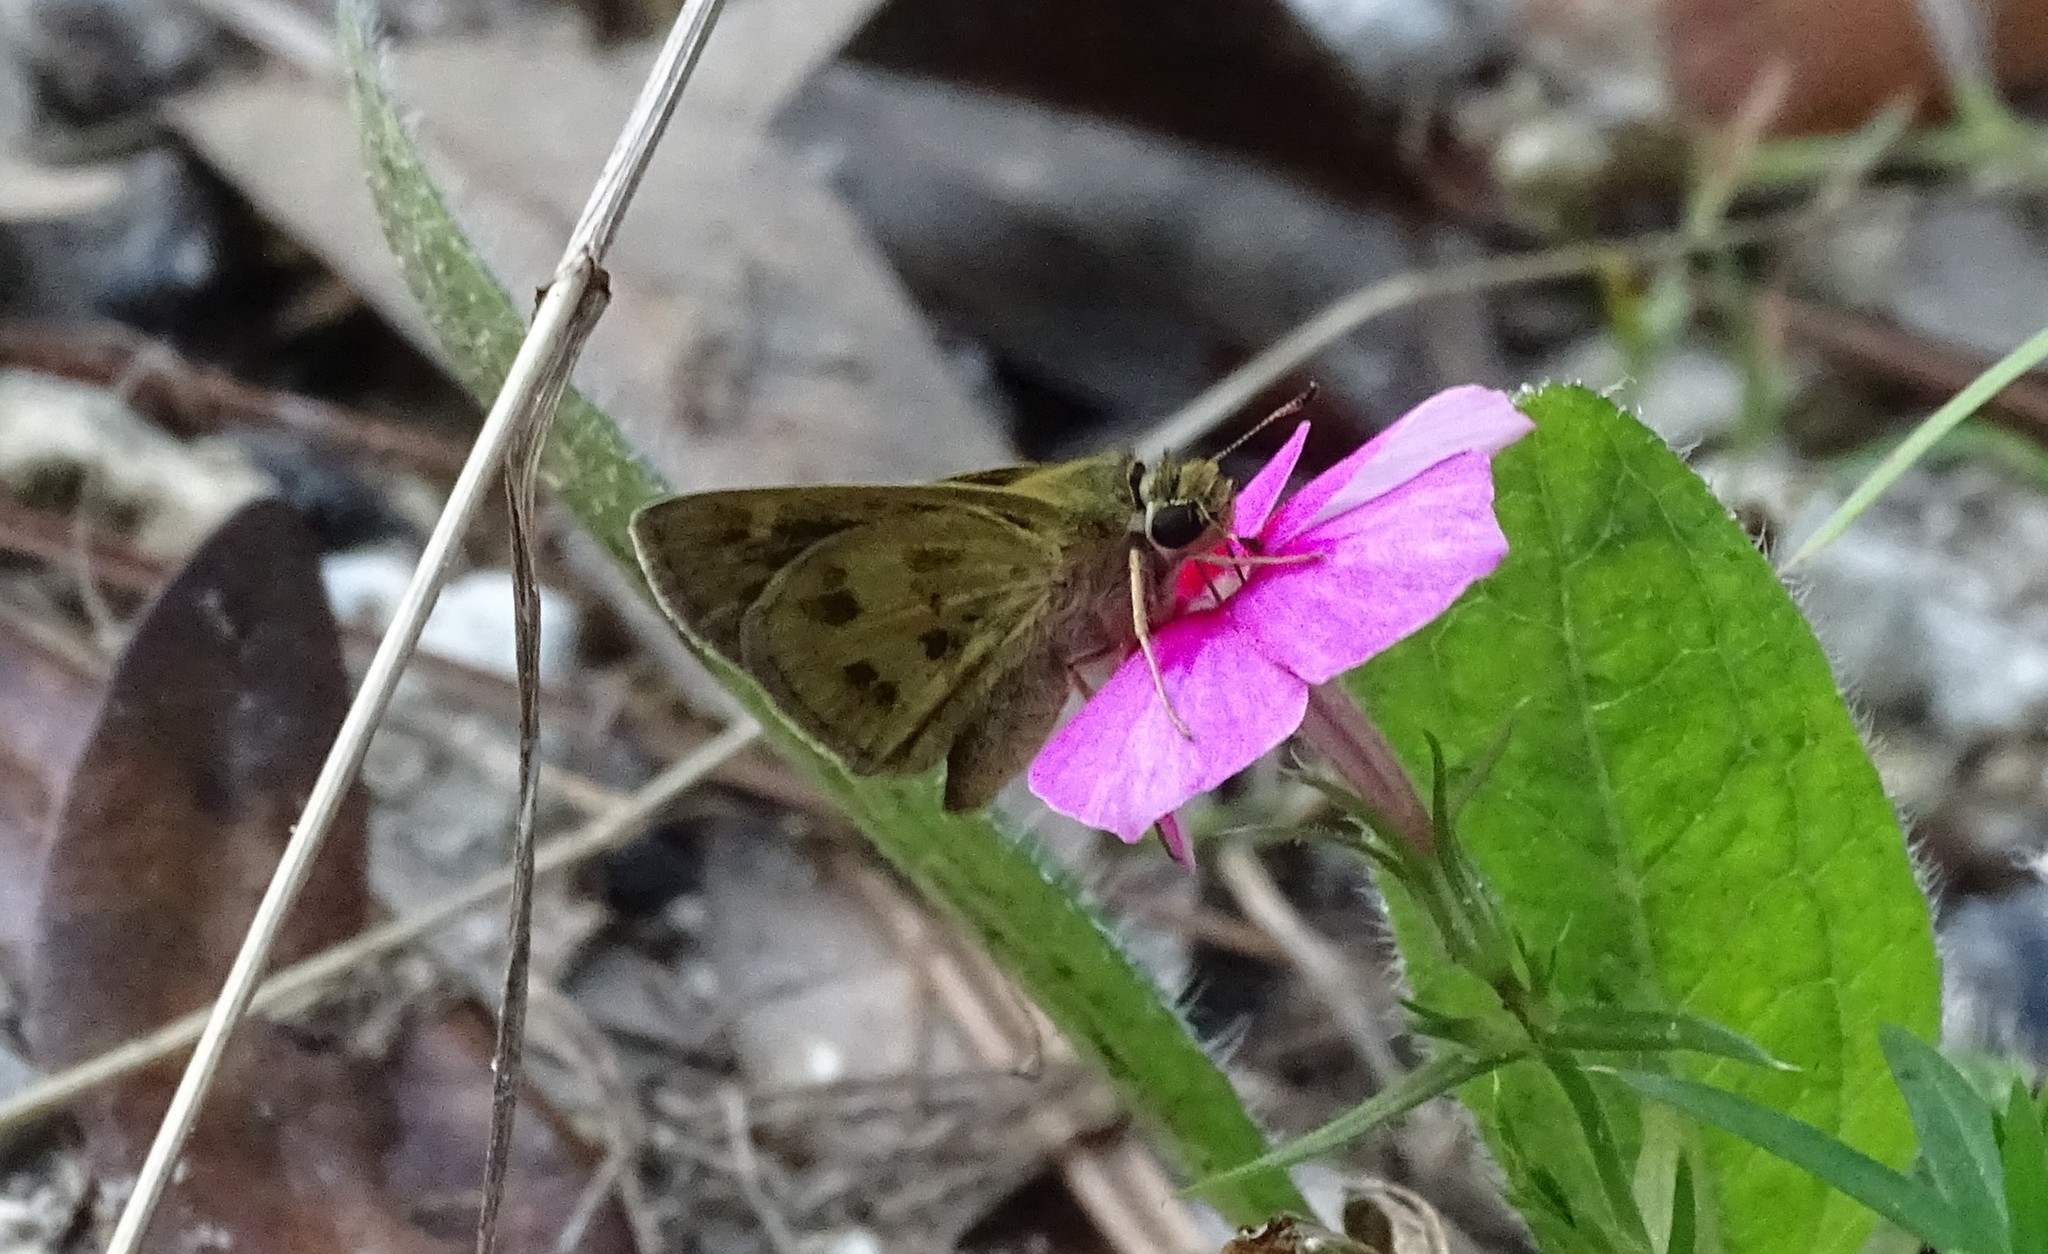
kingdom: Animalia
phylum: Arthropoda
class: Insecta
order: Lepidoptera
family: Hesperiidae
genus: Polites
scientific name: Polites vibex
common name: Whirlabout
